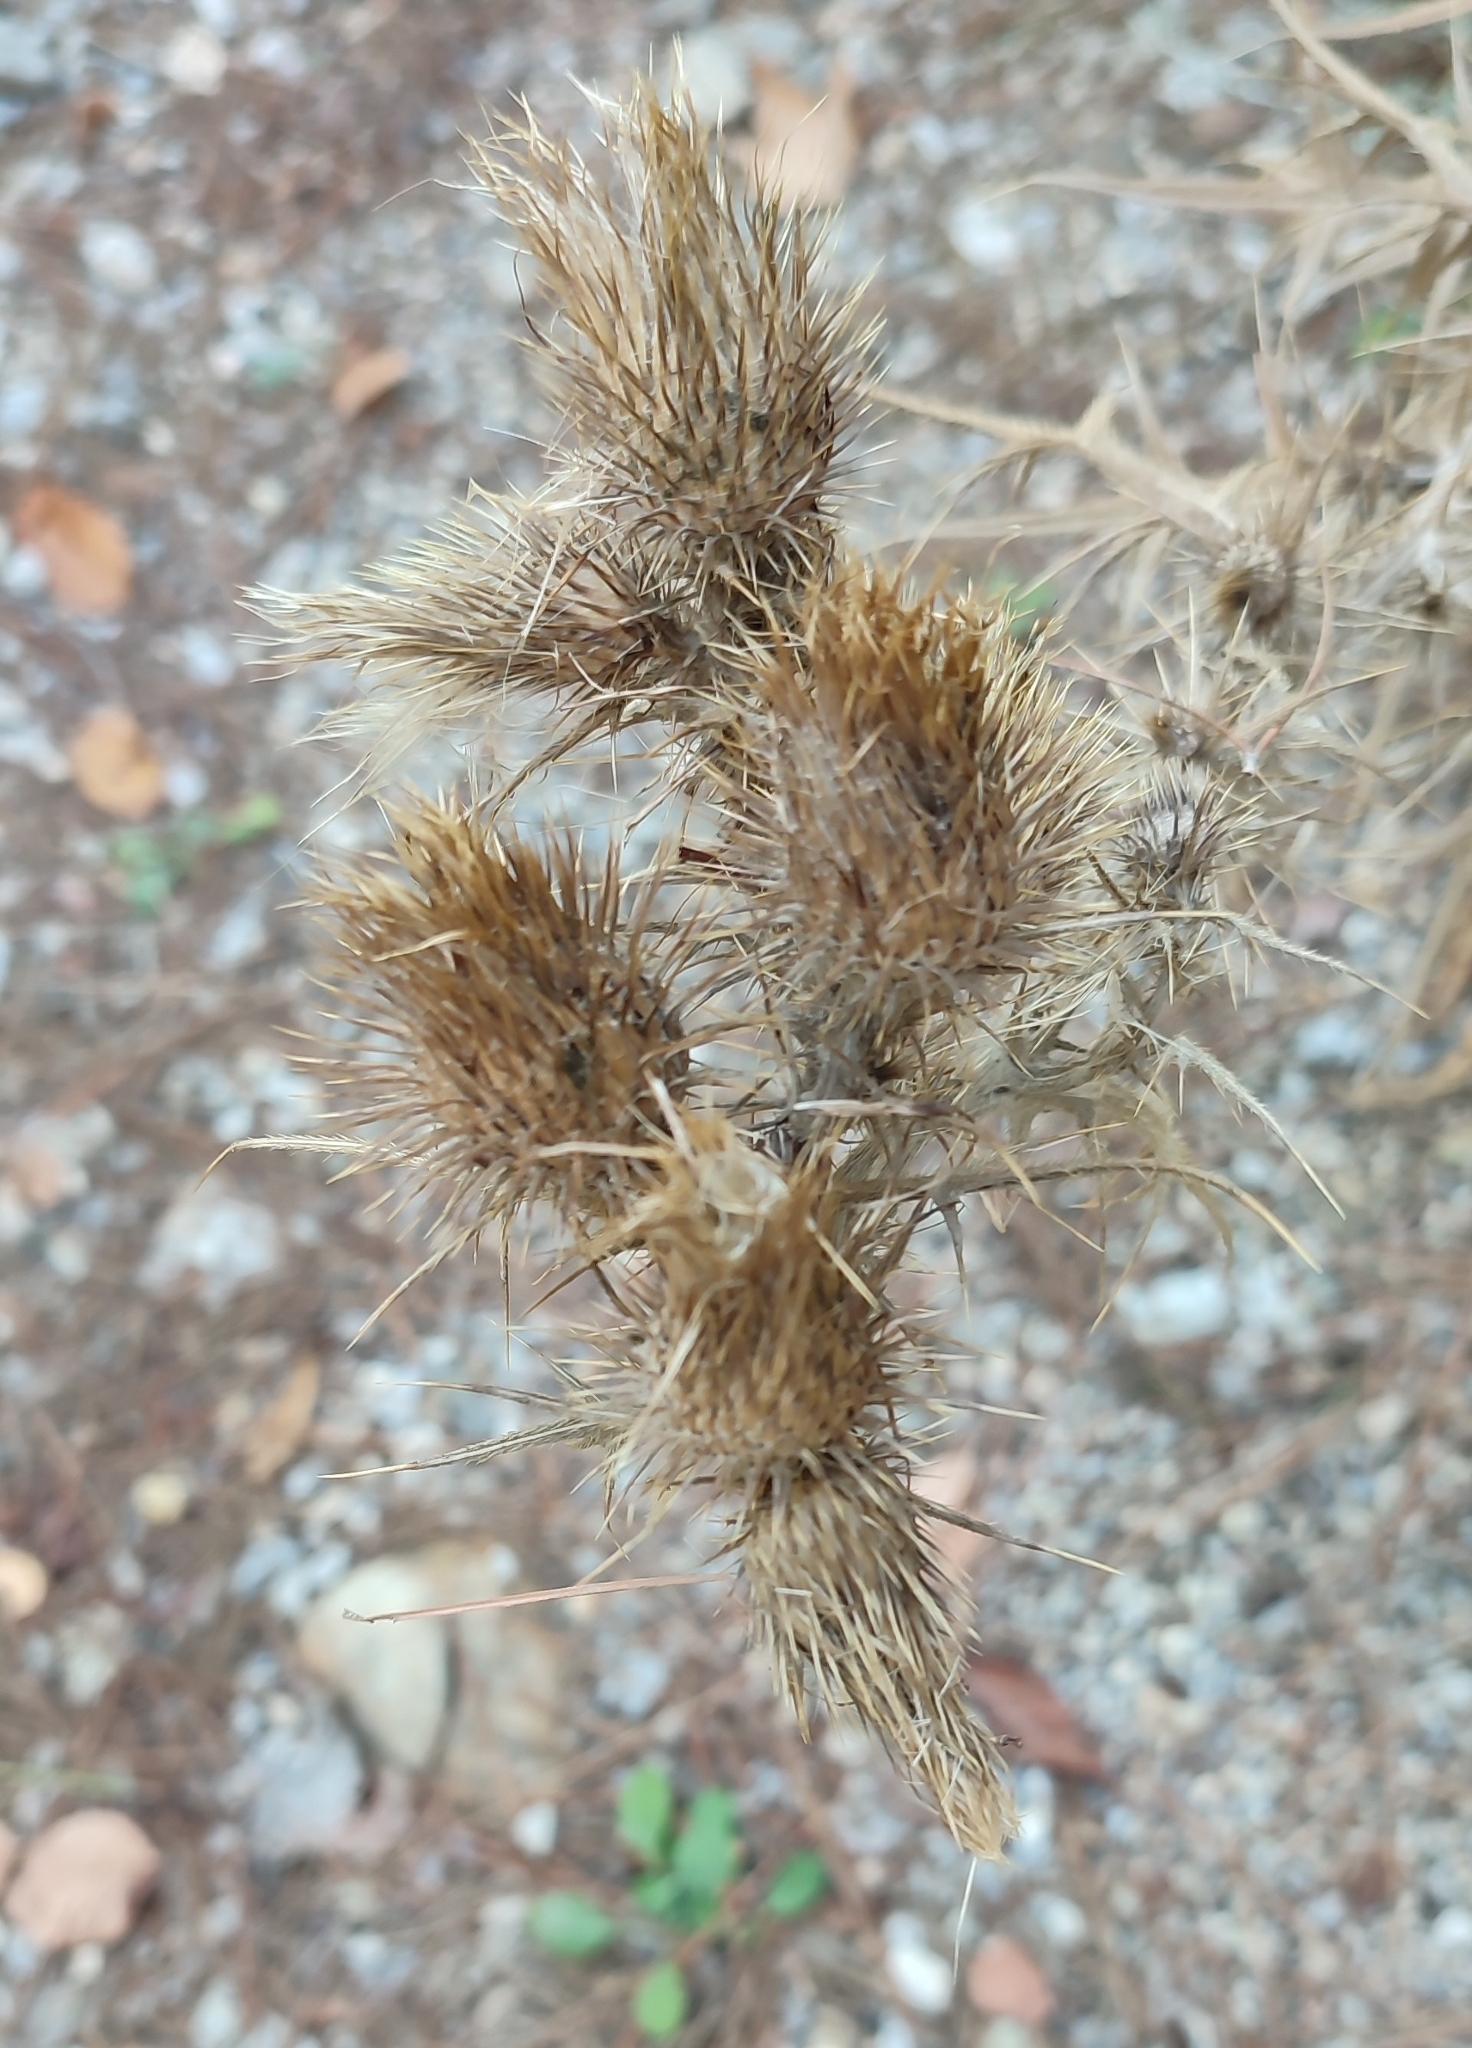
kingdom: Plantae
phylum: Tracheophyta
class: Magnoliopsida
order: Asterales
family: Asteraceae
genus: Cirsium
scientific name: Cirsium vulgare
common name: Bull thistle
